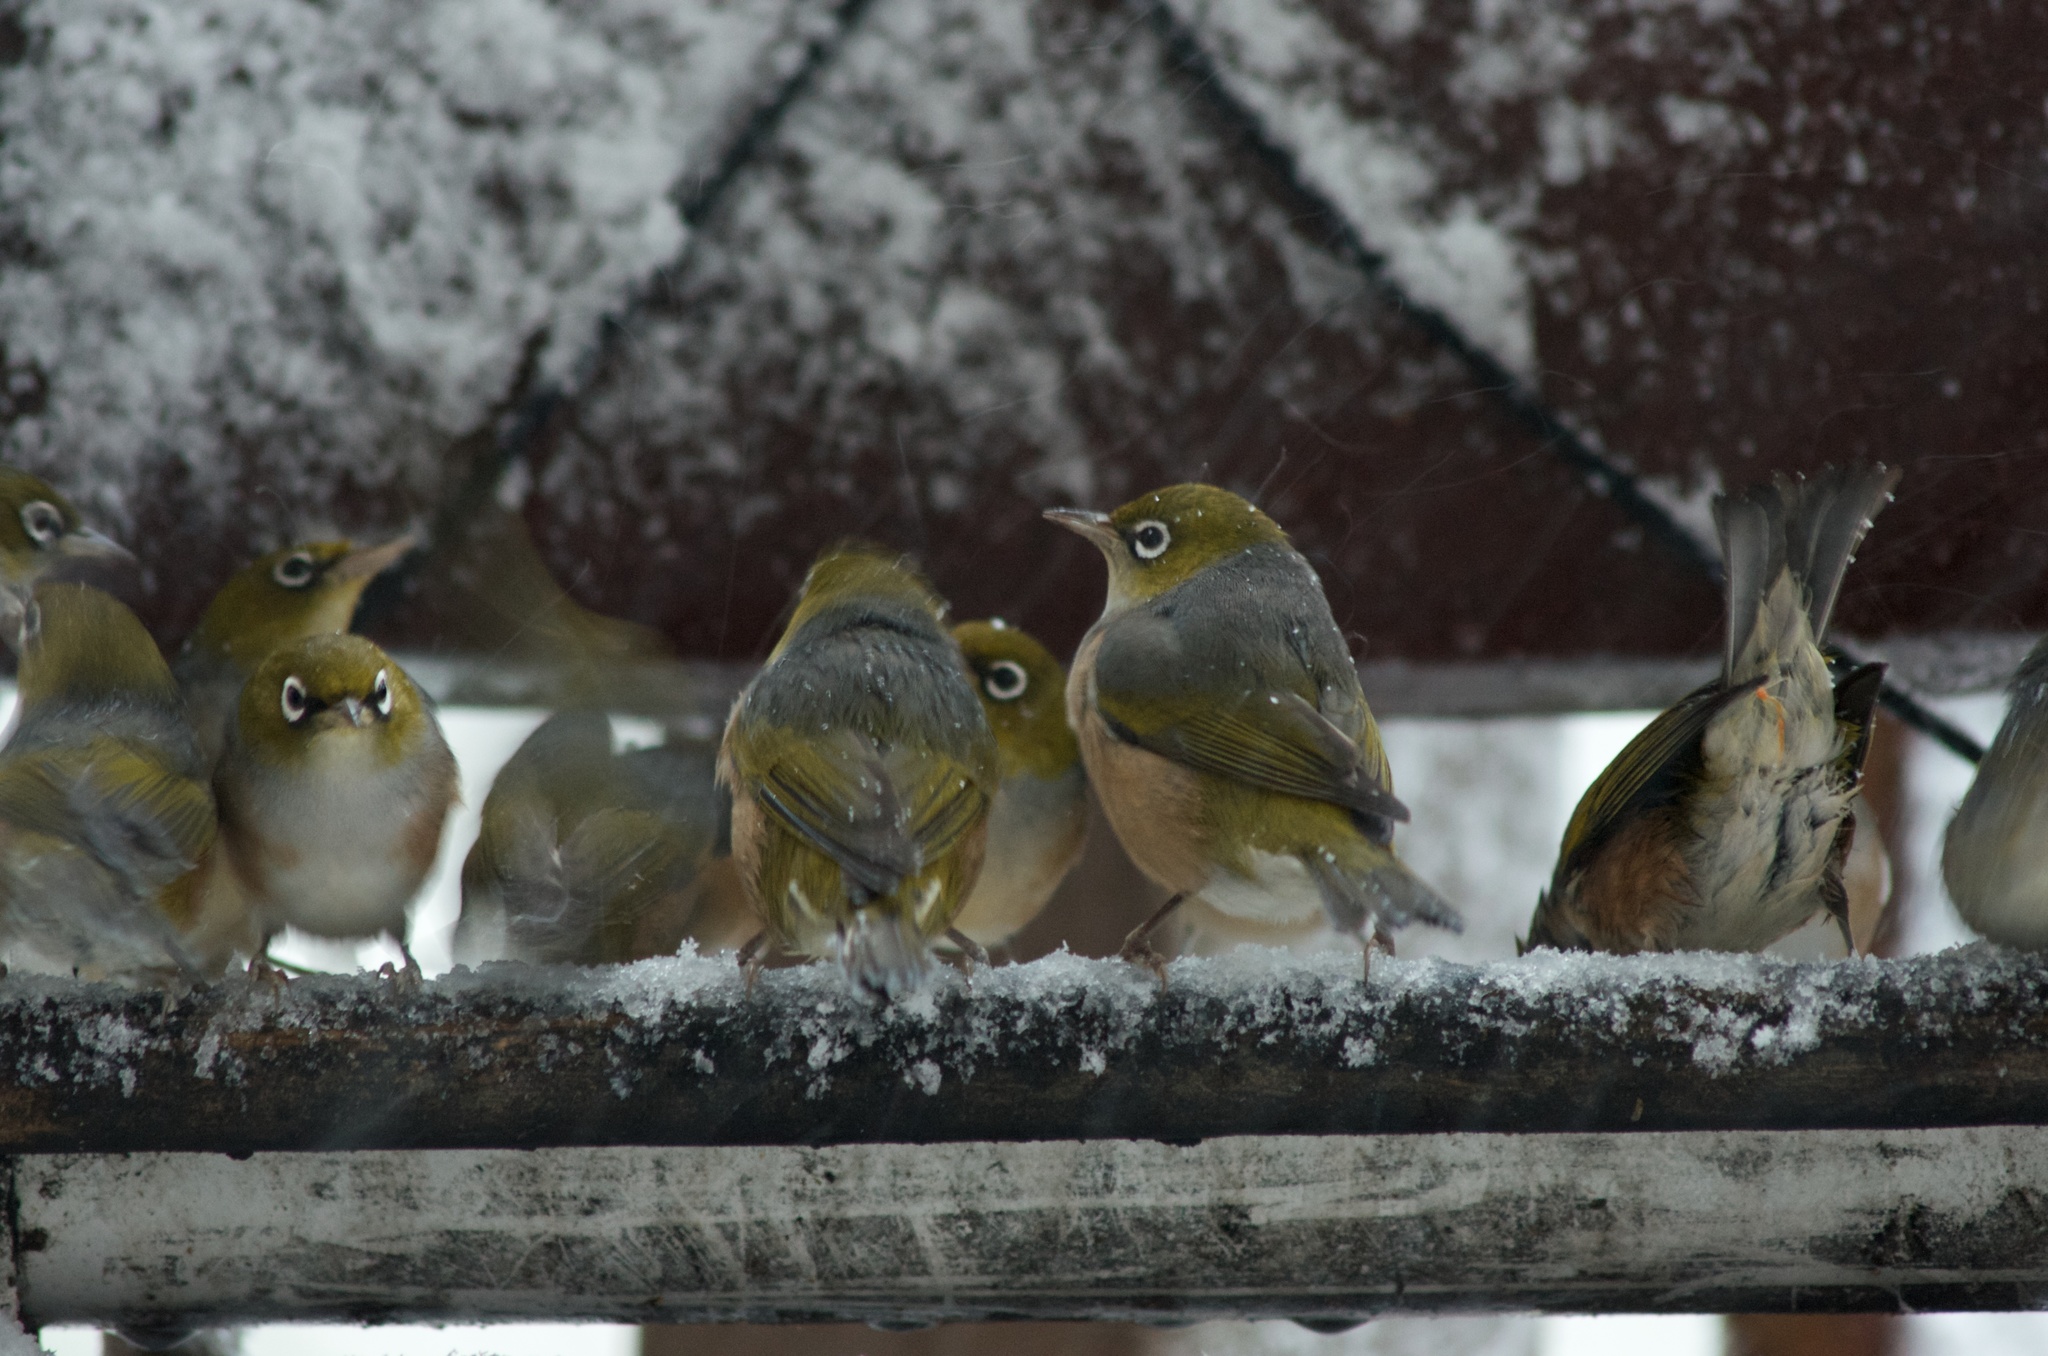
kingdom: Animalia
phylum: Chordata
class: Aves
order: Passeriformes
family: Zosteropidae
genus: Zosterops
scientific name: Zosterops lateralis
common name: Silvereye
